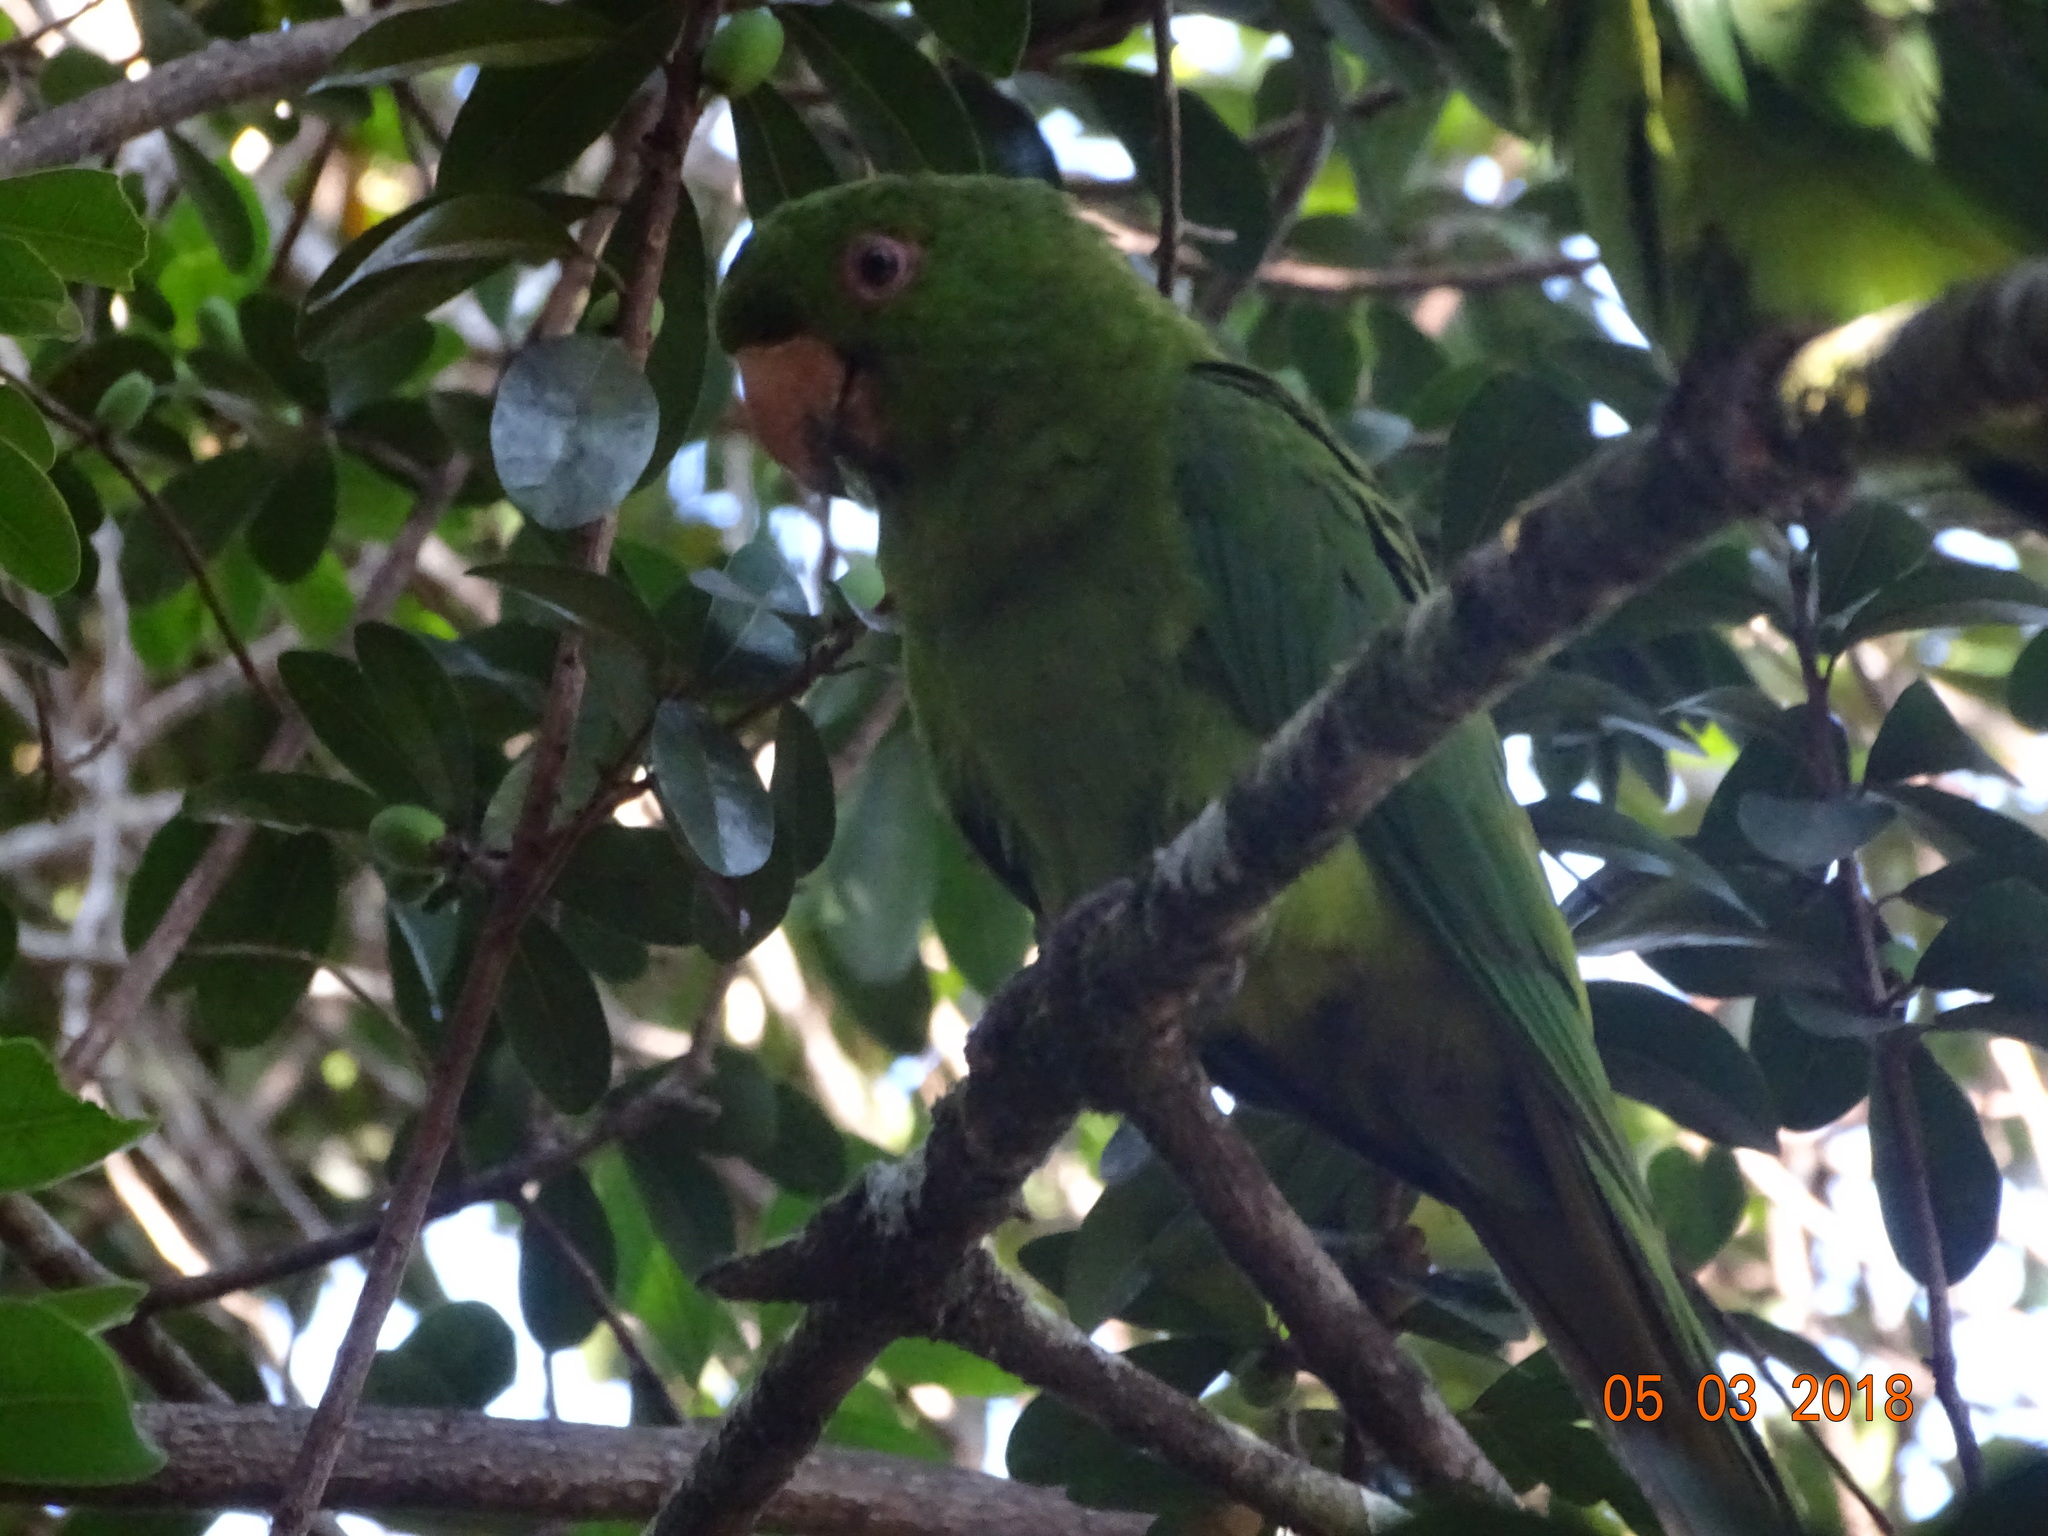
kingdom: Animalia
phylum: Chordata
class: Aves
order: Psittaciformes
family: Psittacidae
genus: Aratinga
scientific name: Aratinga holochlora
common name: Green parakeet
